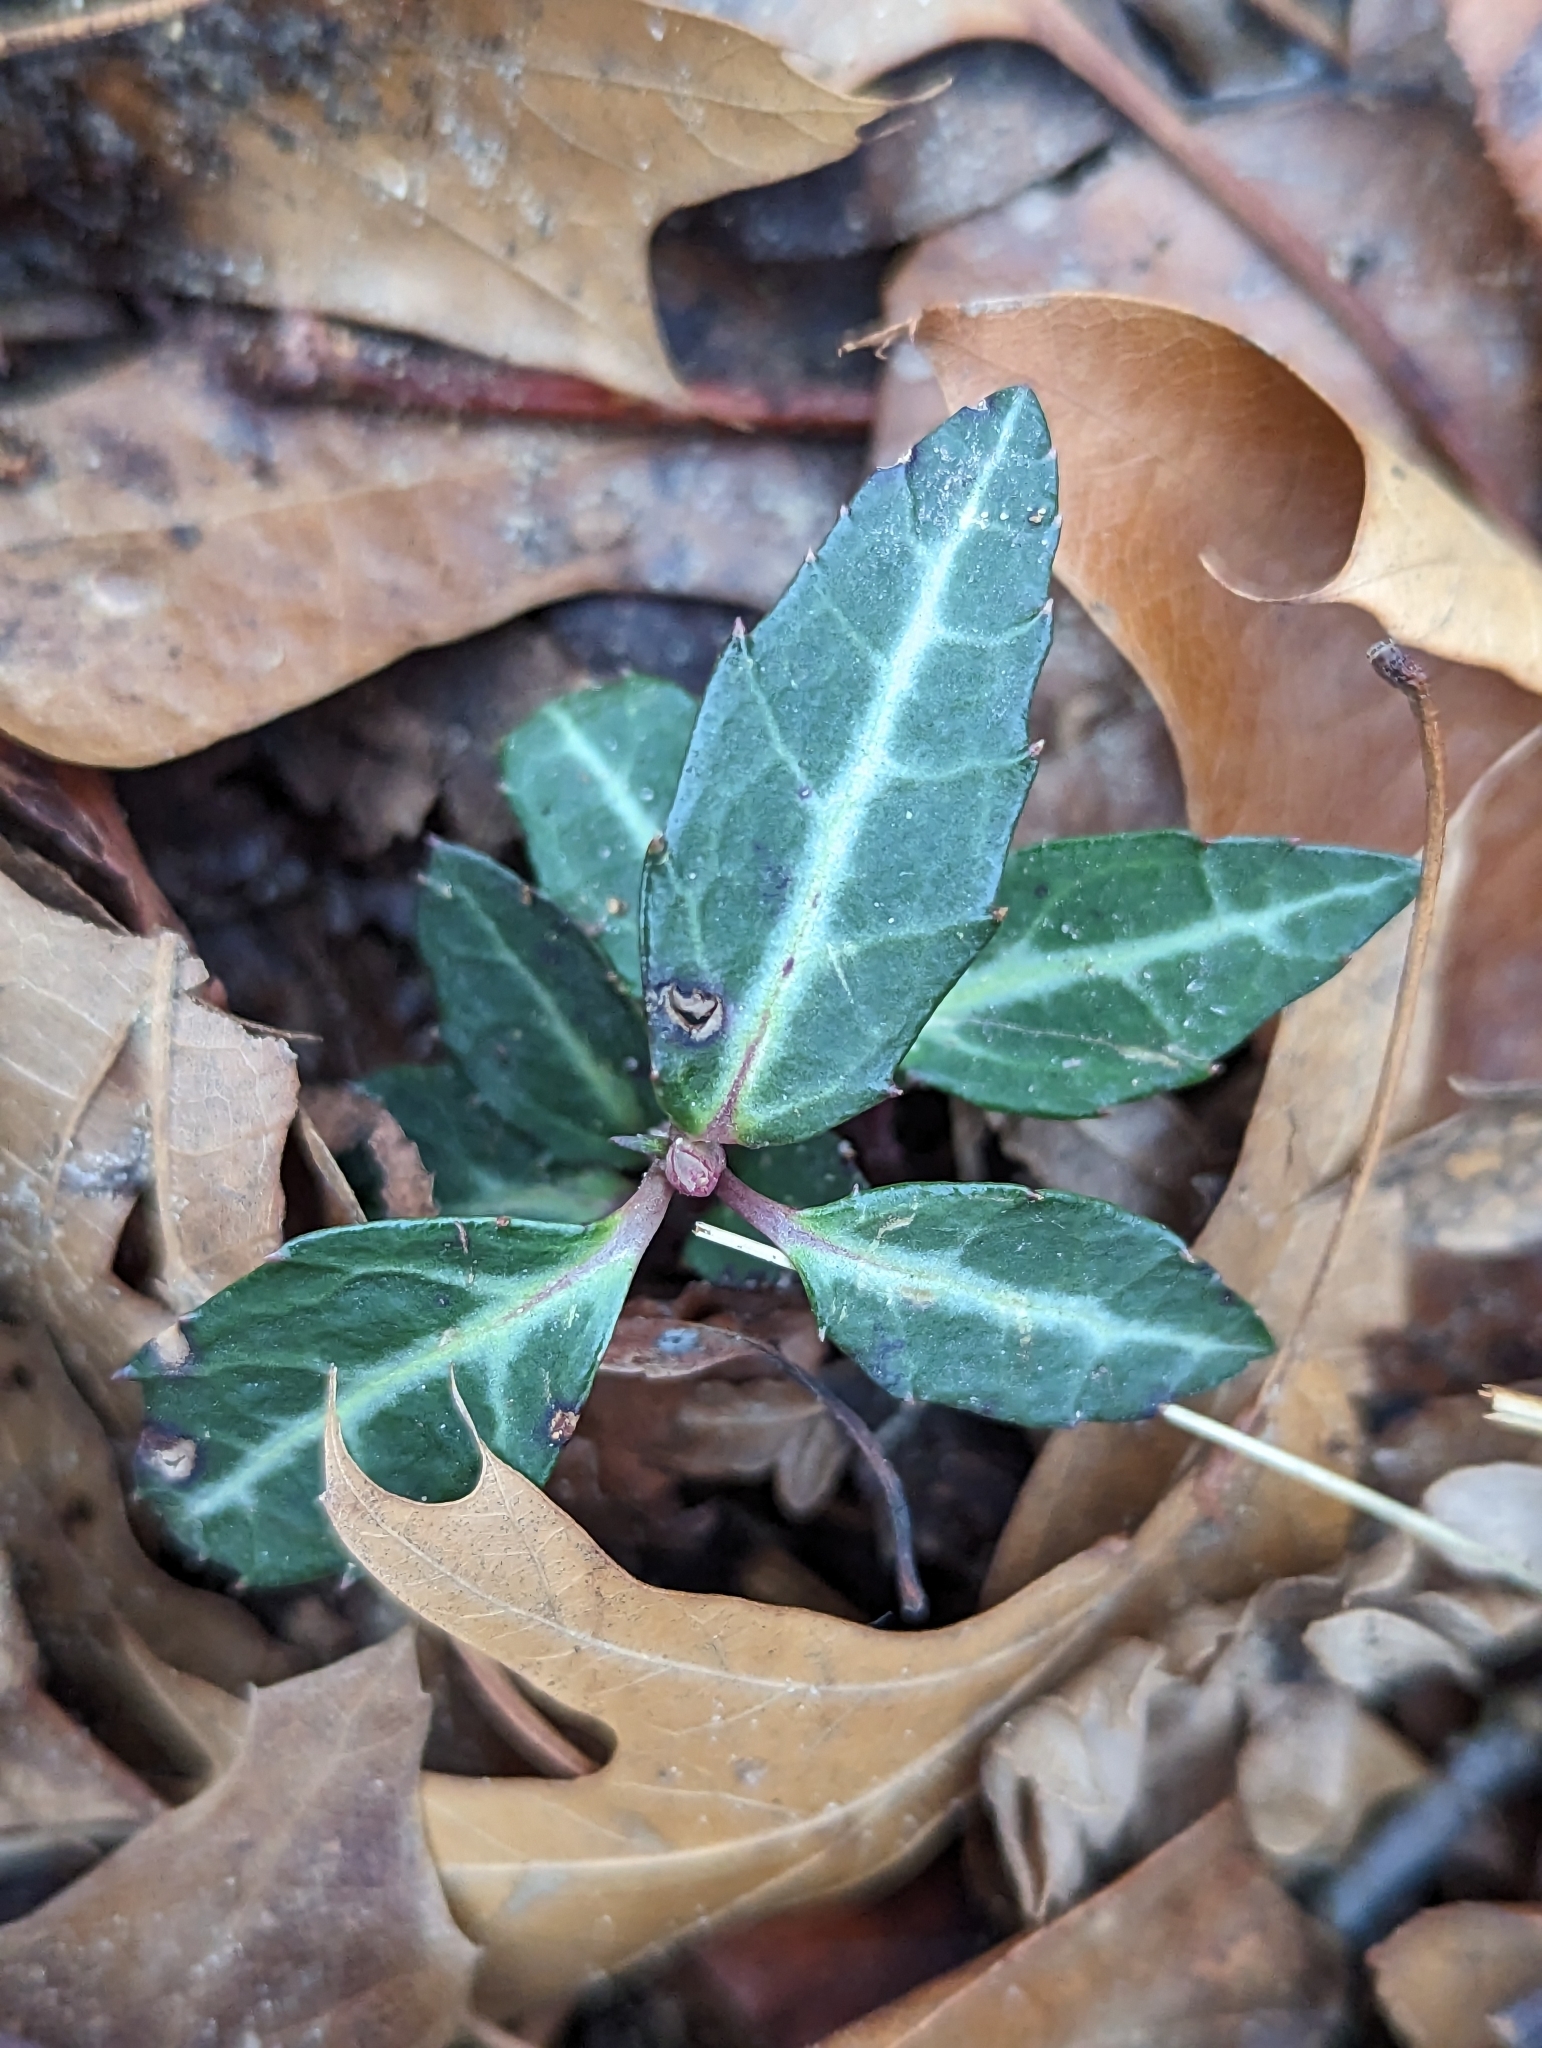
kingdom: Plantae
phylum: Tracheophyta
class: Magnoliopsida
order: Ericales
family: Ericaceae
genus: Chimaphila
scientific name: Chimaphila maculata
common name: Spotted pipsissewa
